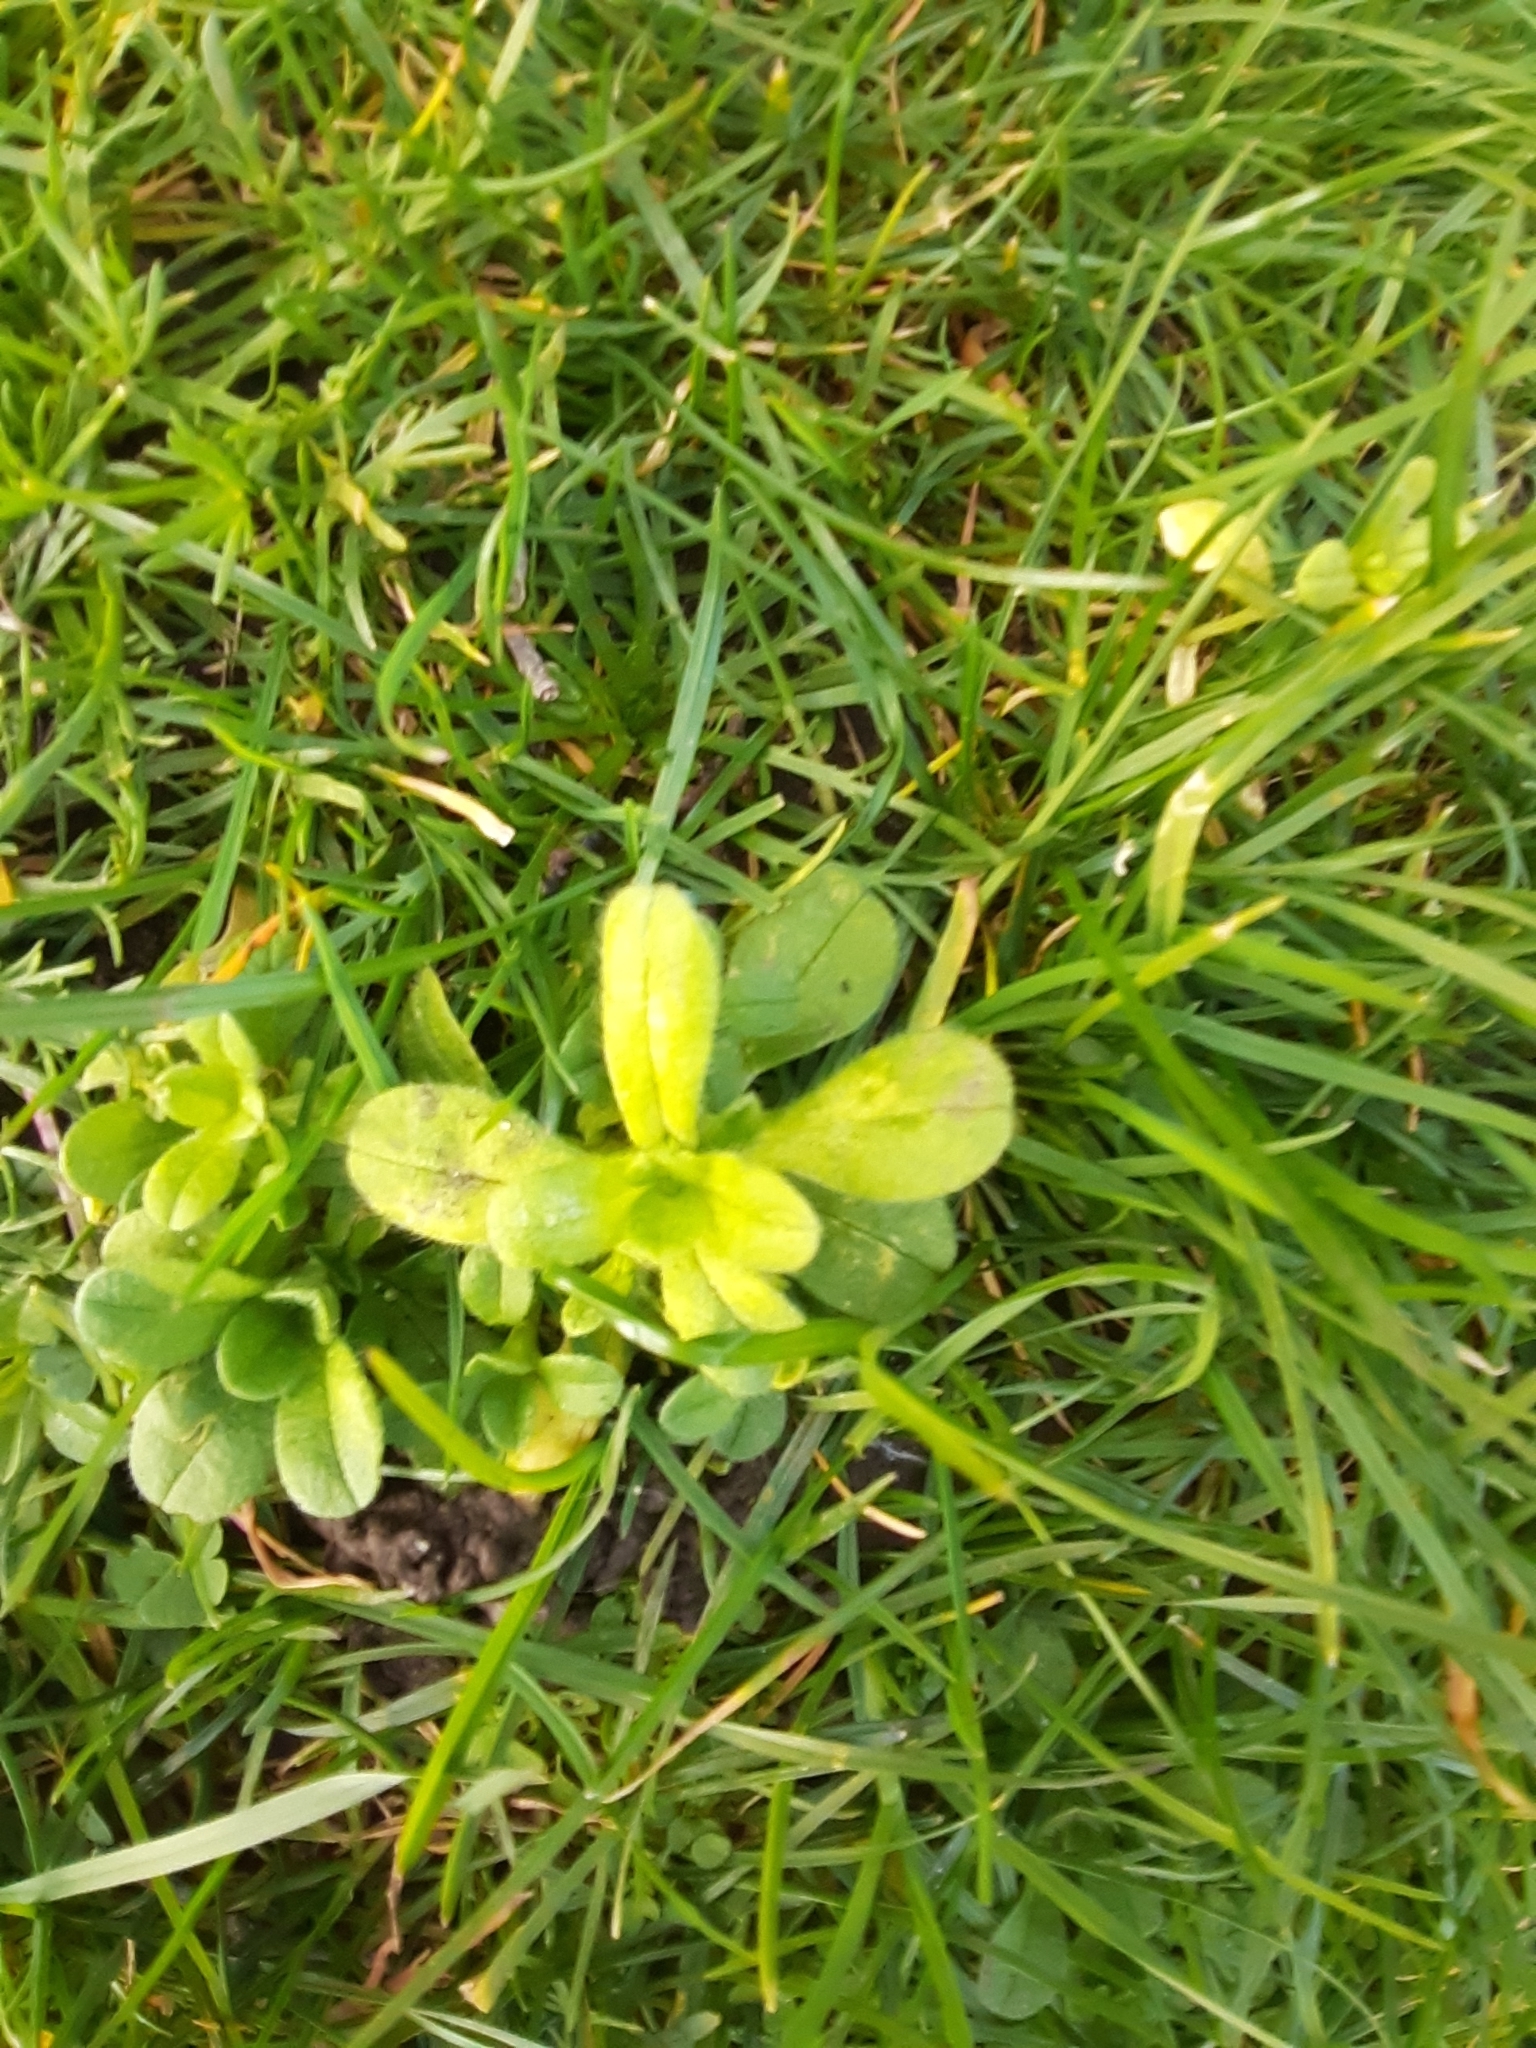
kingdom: Plantae
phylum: Tracheophyta
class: Magnoliopsida
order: Caryophyllales
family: Caryophyllaceae
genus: Cerastium
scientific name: Cerastium glomeratum
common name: Sticky chickweed
